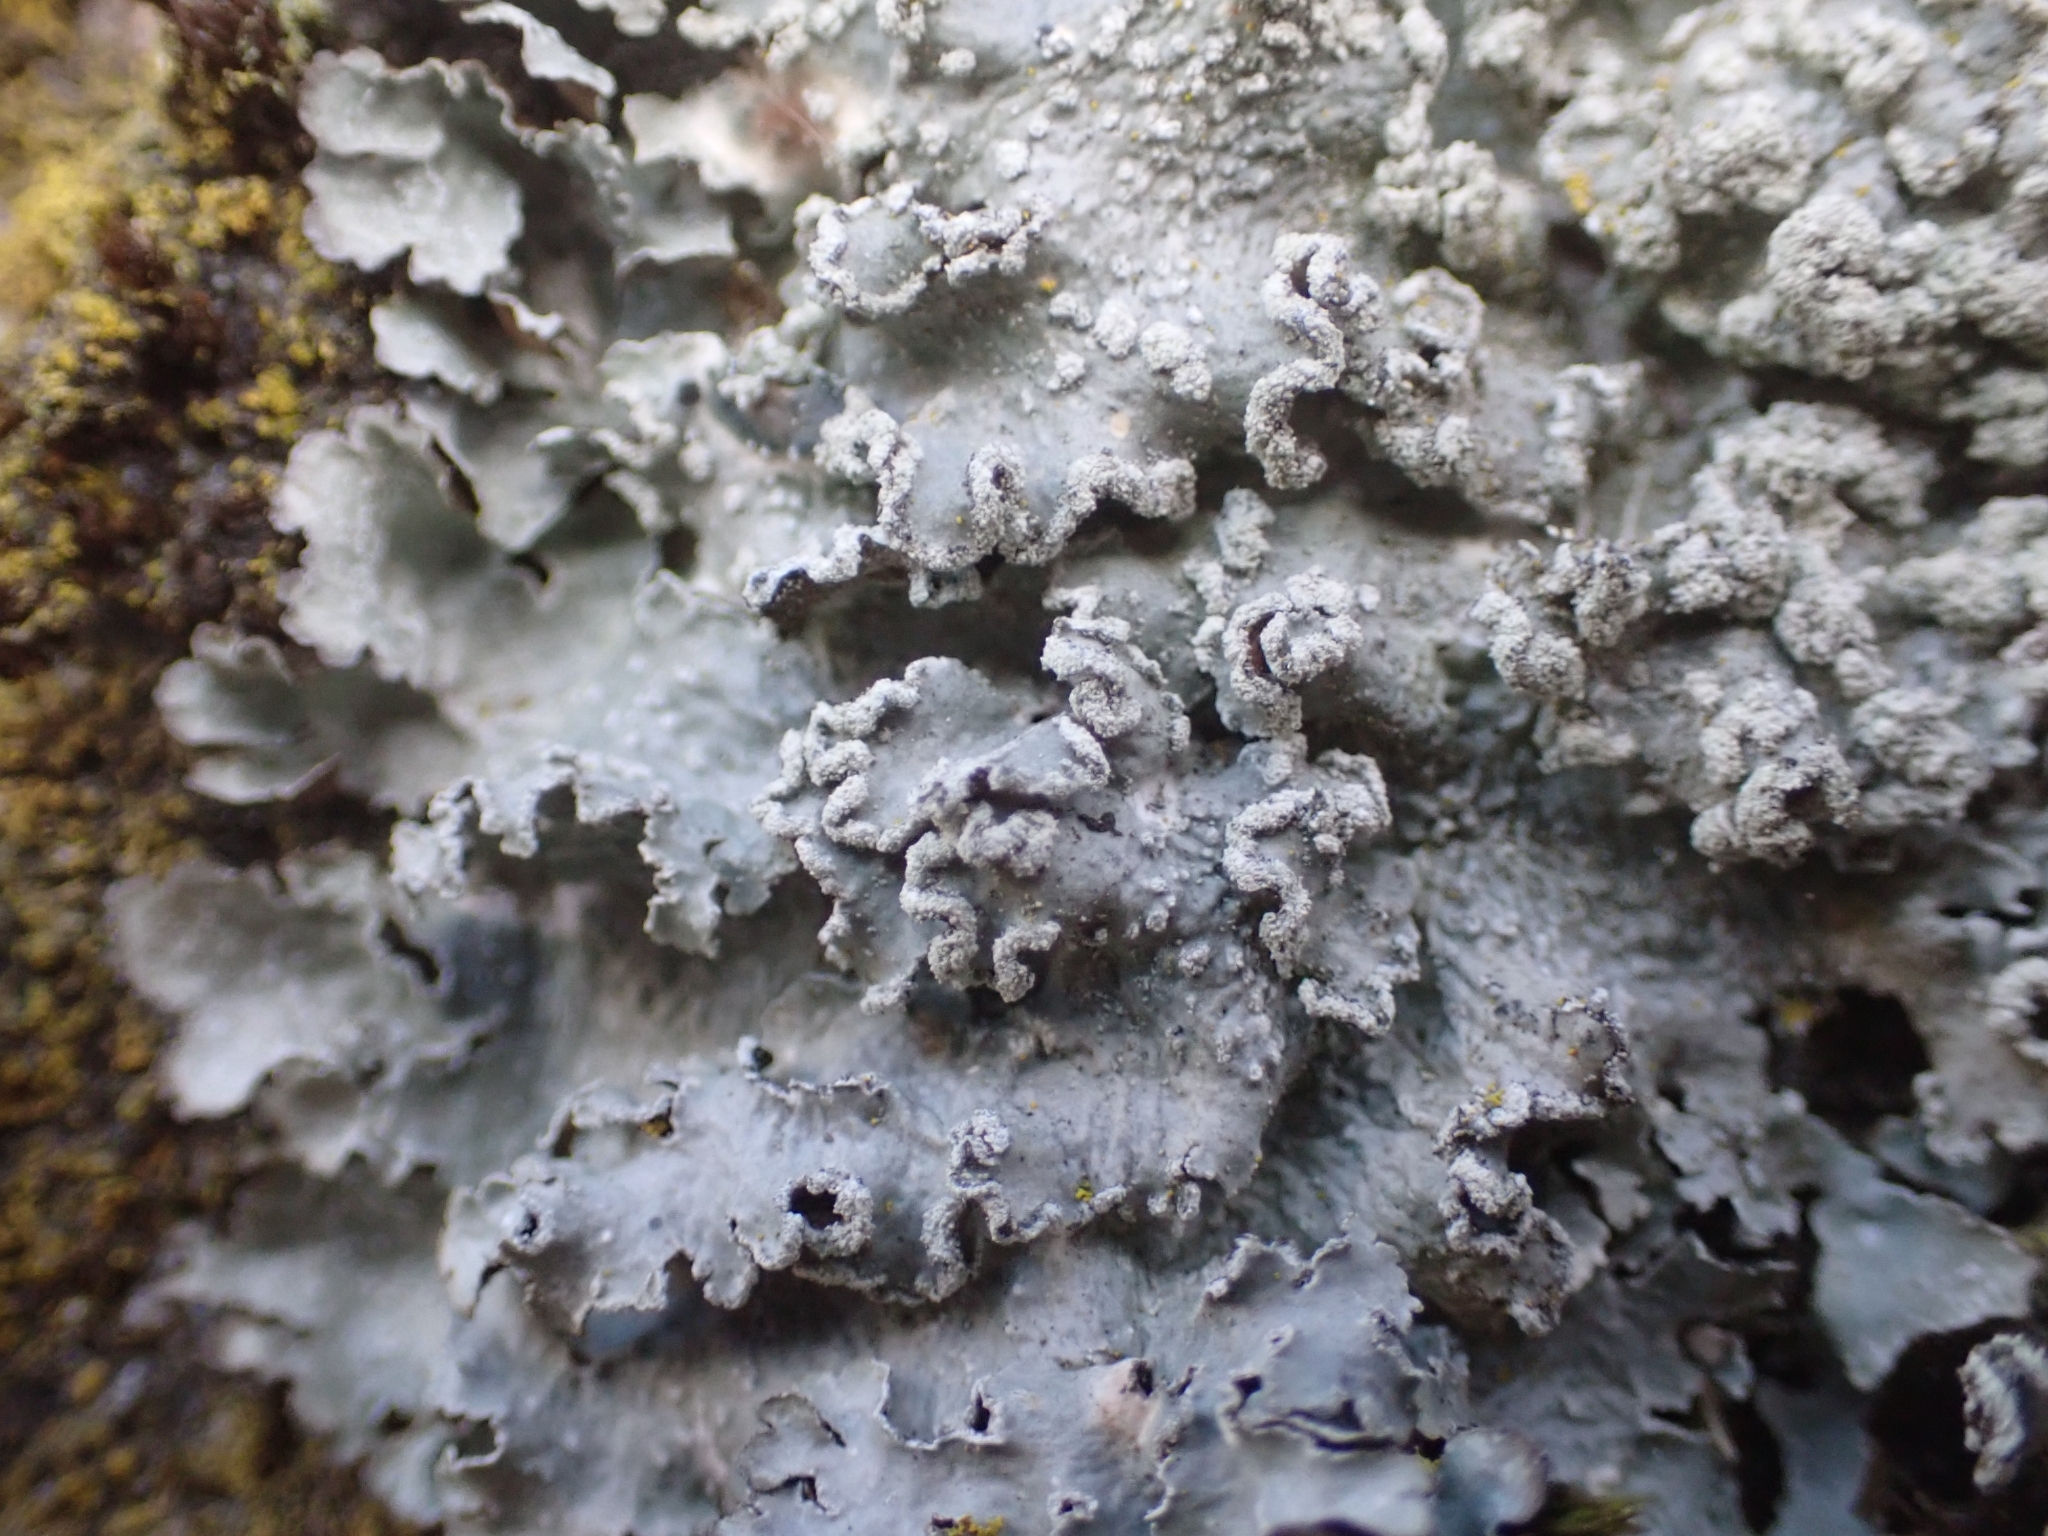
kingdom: Fungi
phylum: Ascomycota
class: Lecanoromycetes
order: Lecanorales
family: Parmeliaceae
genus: Punctelia
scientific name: Punctelia jeckeri
